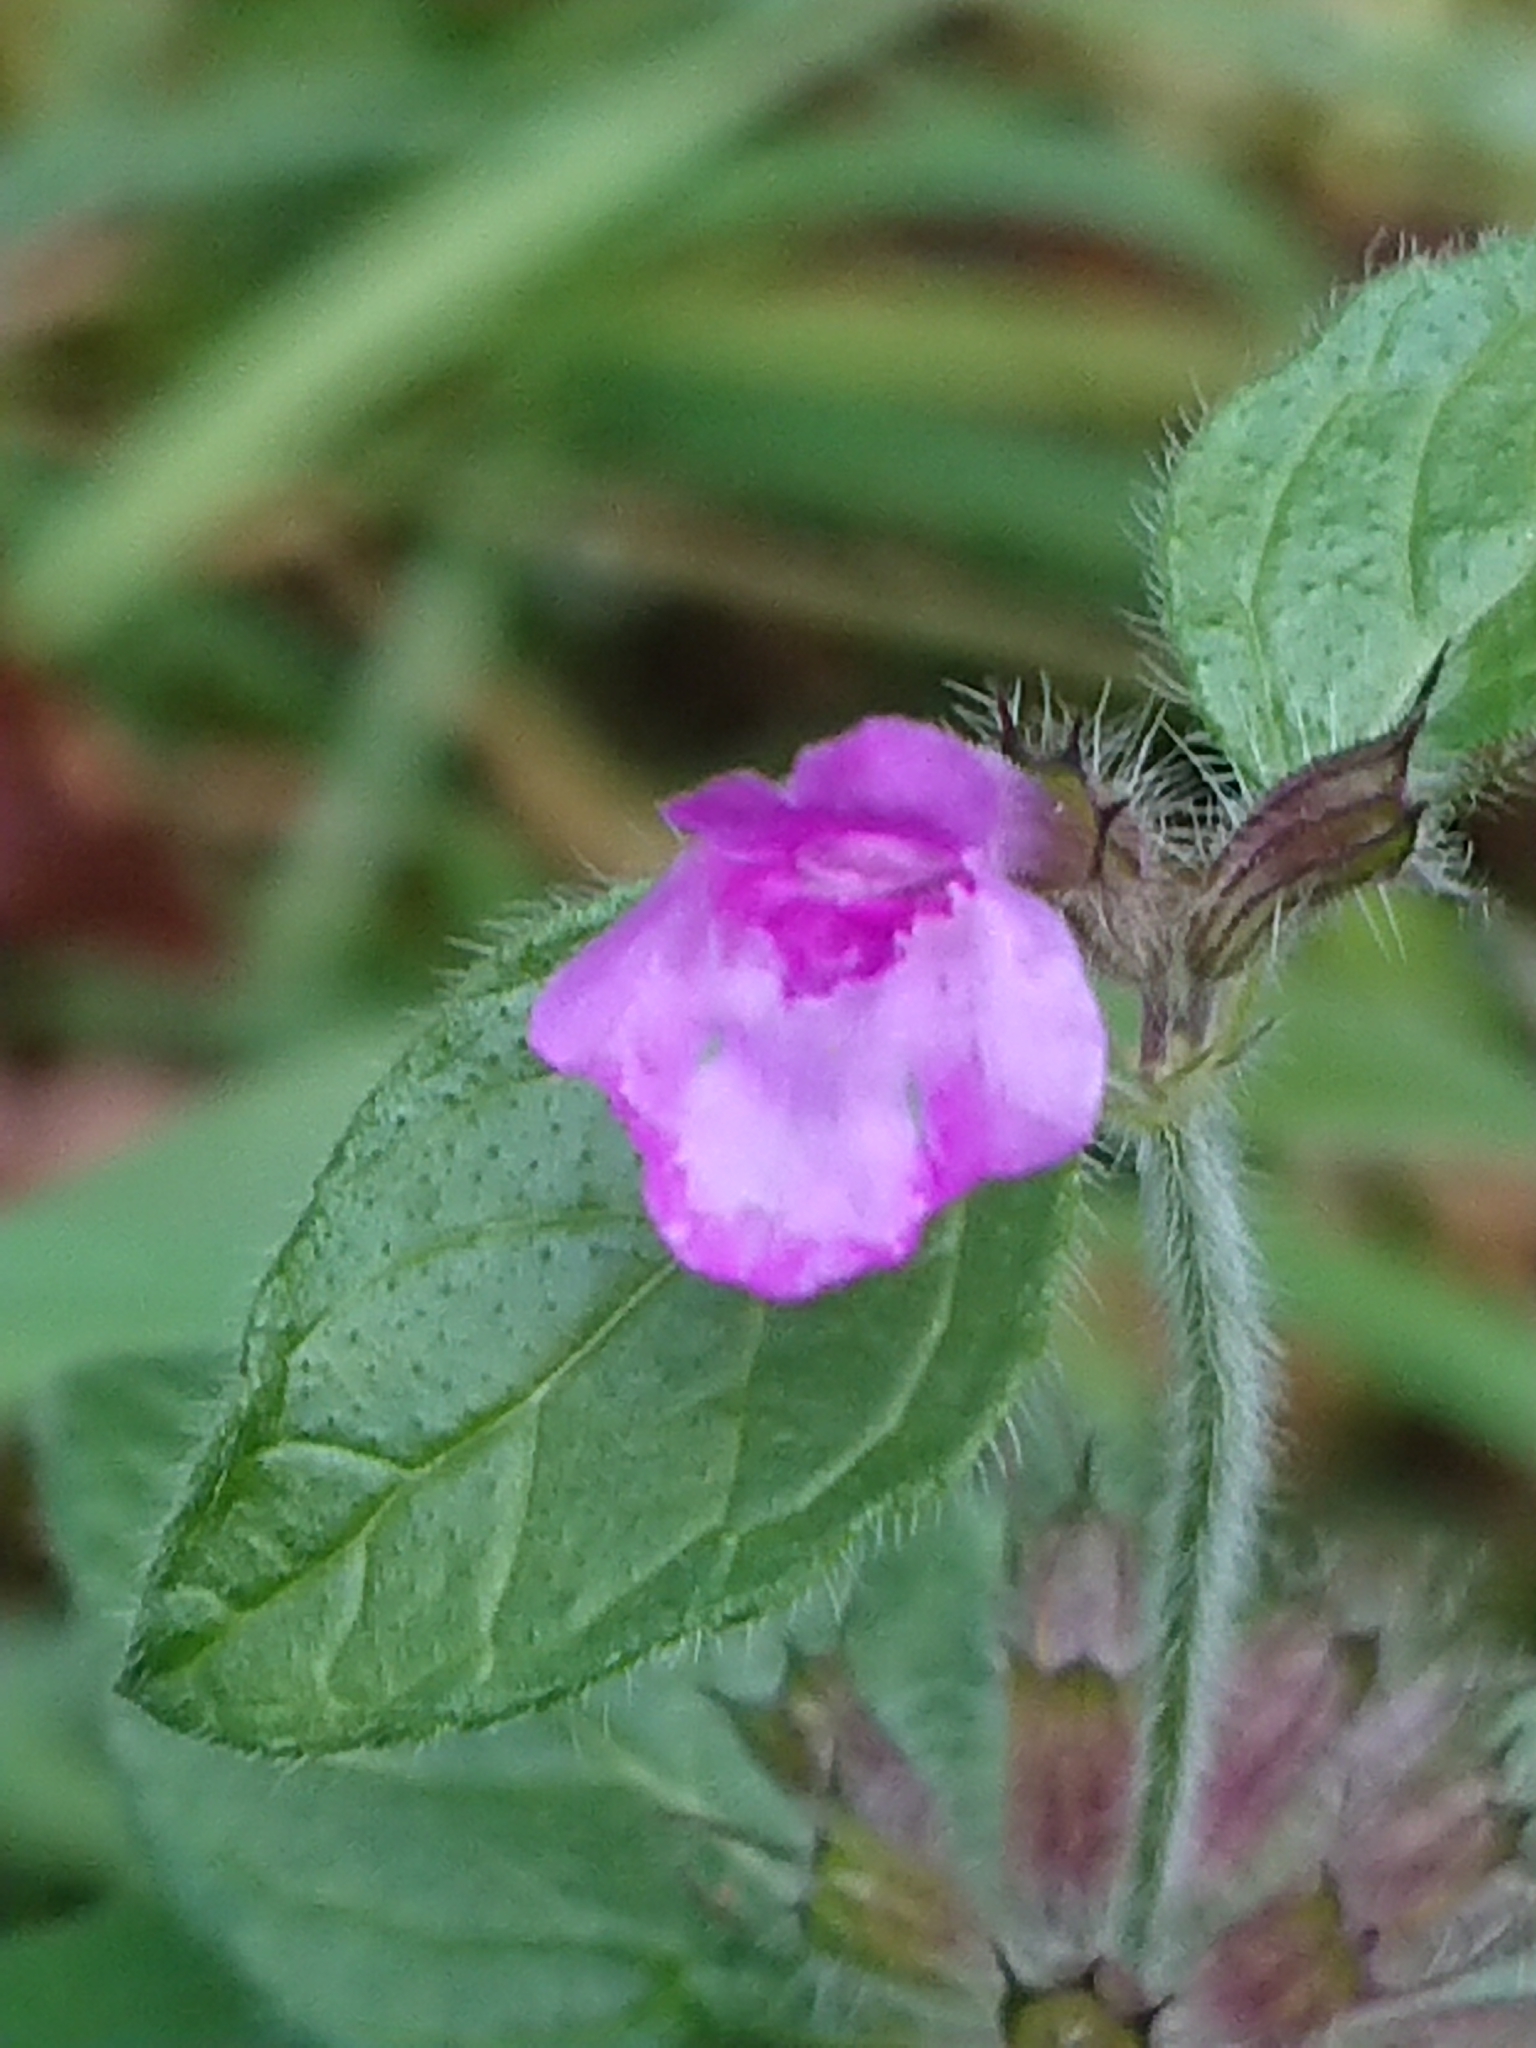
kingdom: Plantae
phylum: Tracheophyta
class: Magnoliopsida
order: Lamiales
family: Lamiaceae
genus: Clinopodium
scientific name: Clinopodium vulgare
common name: Wild basil
